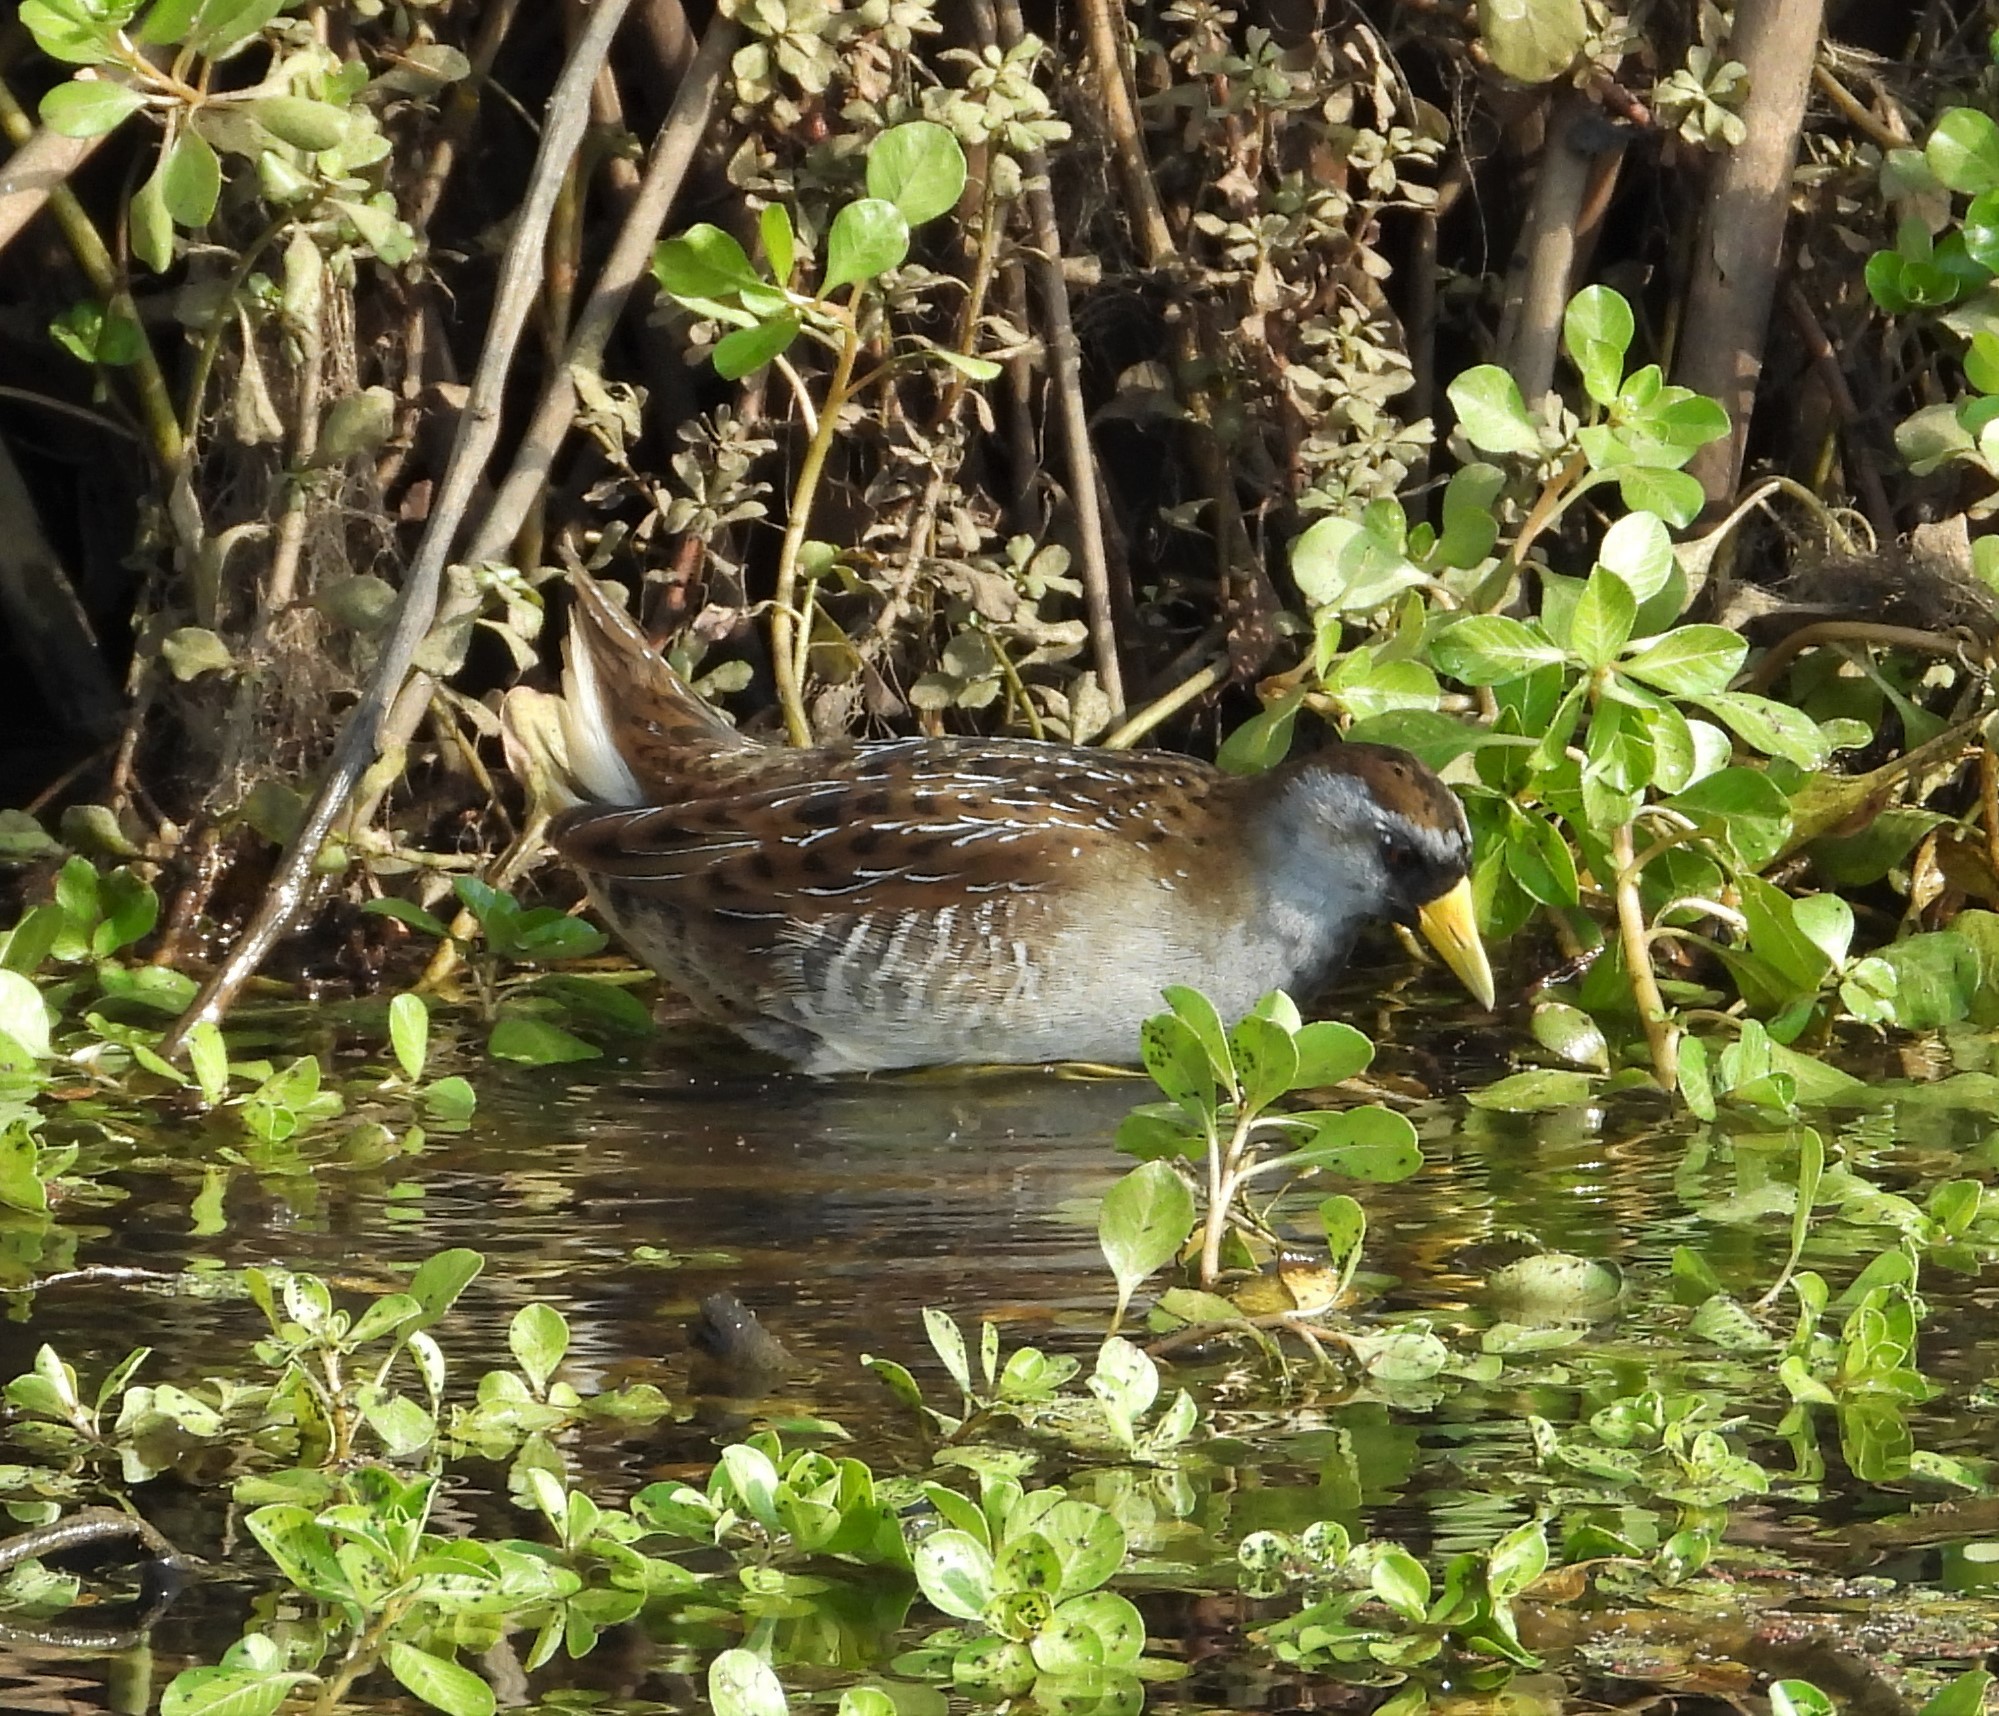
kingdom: Animalia
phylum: Chordata
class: Aves
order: Gruiformes
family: Rallidae
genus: Porzana
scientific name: Porzana carolina
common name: Sora
